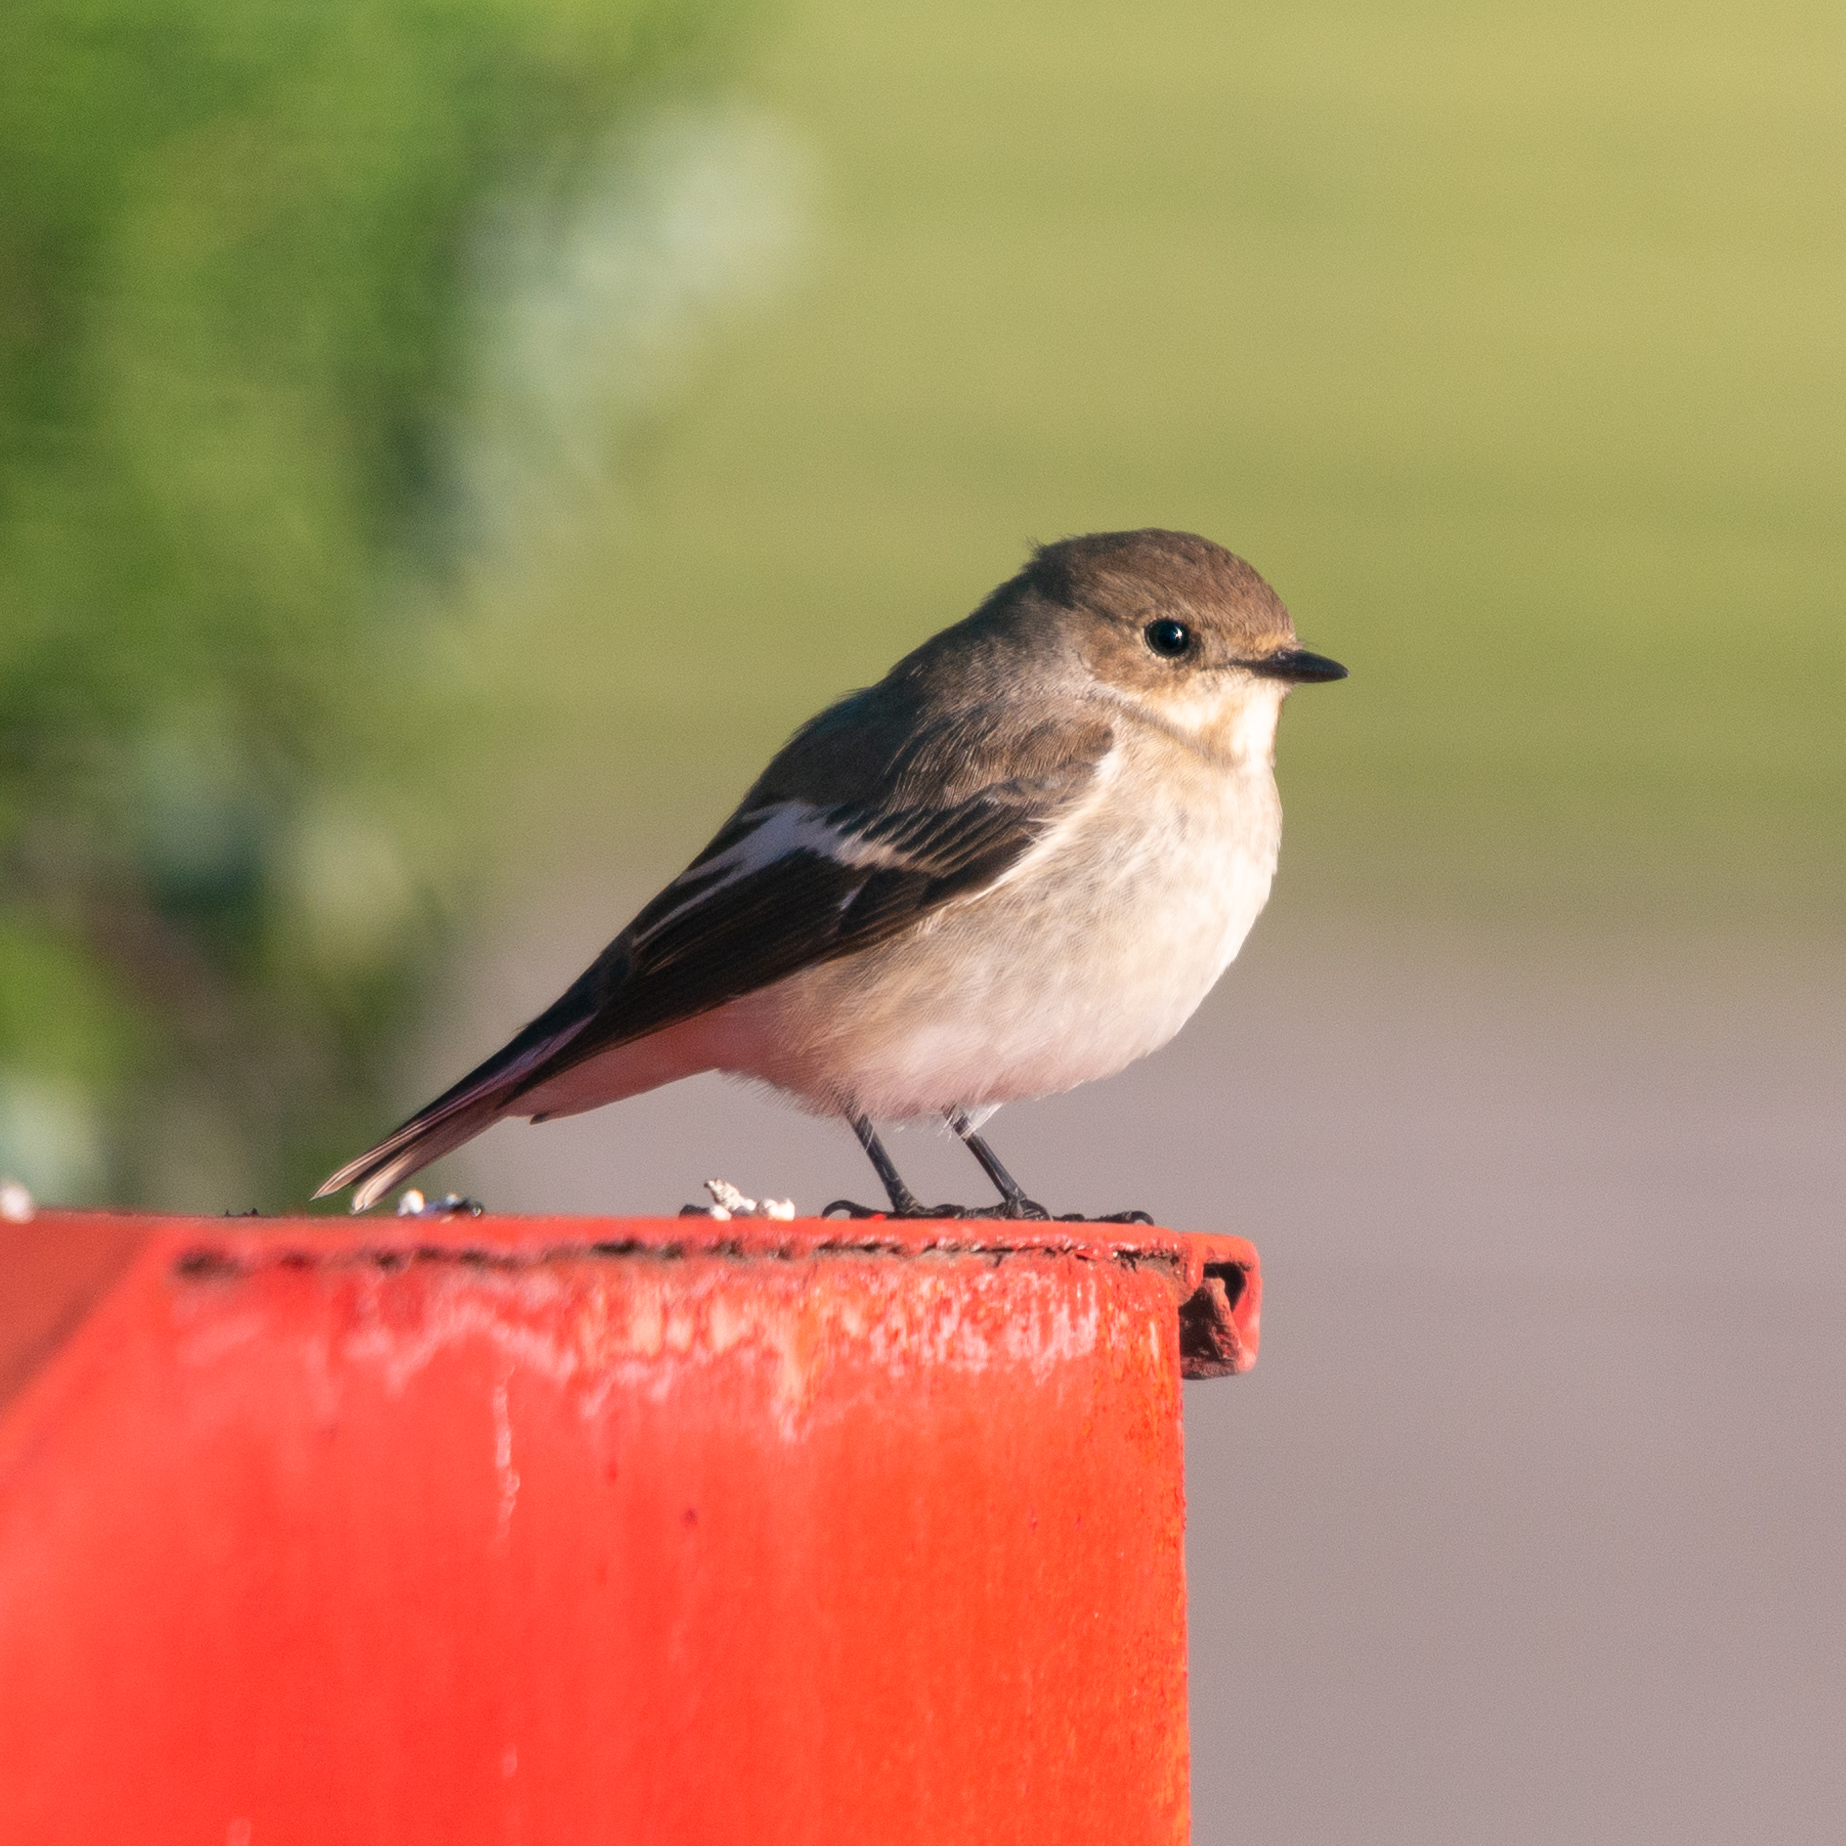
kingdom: Animalia
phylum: Chordata
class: Aves
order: Passeriformes
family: Muscicapidae
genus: Ficedula
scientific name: Ficedula hypoleuca
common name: European pied flycatcher
